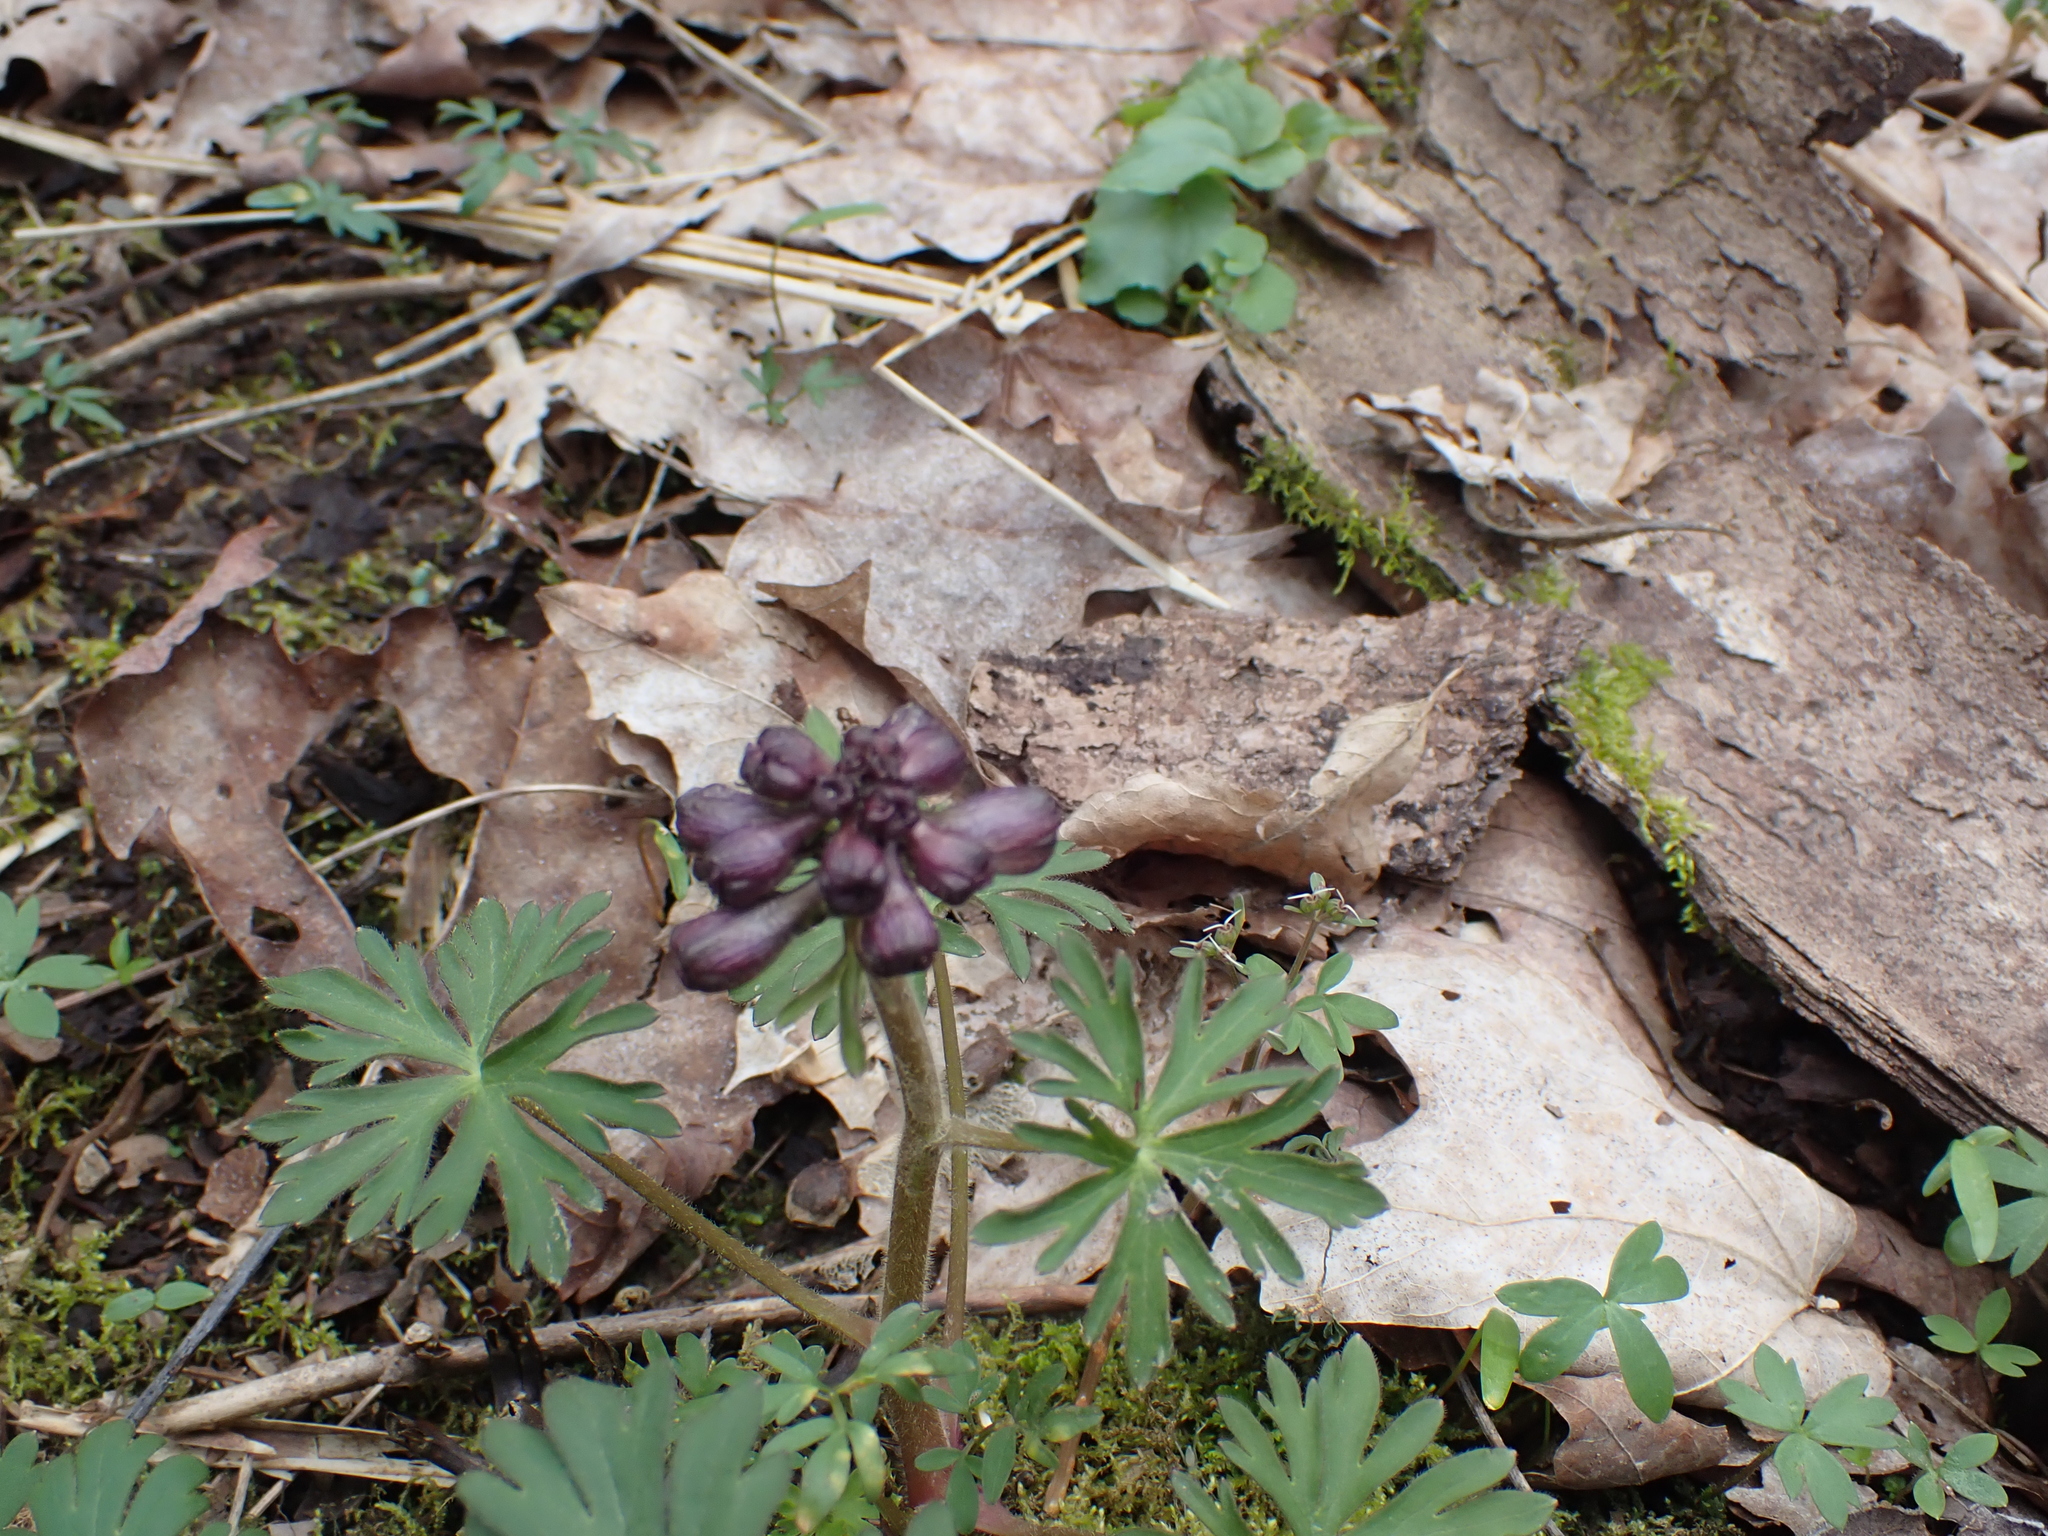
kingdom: Plantae
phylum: Tracheophyta
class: Magnoliopsida
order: Ranunculales
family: Ranunculaceae
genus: Delphinium
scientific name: Delphinium tricorne
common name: Dwarf larkspur
